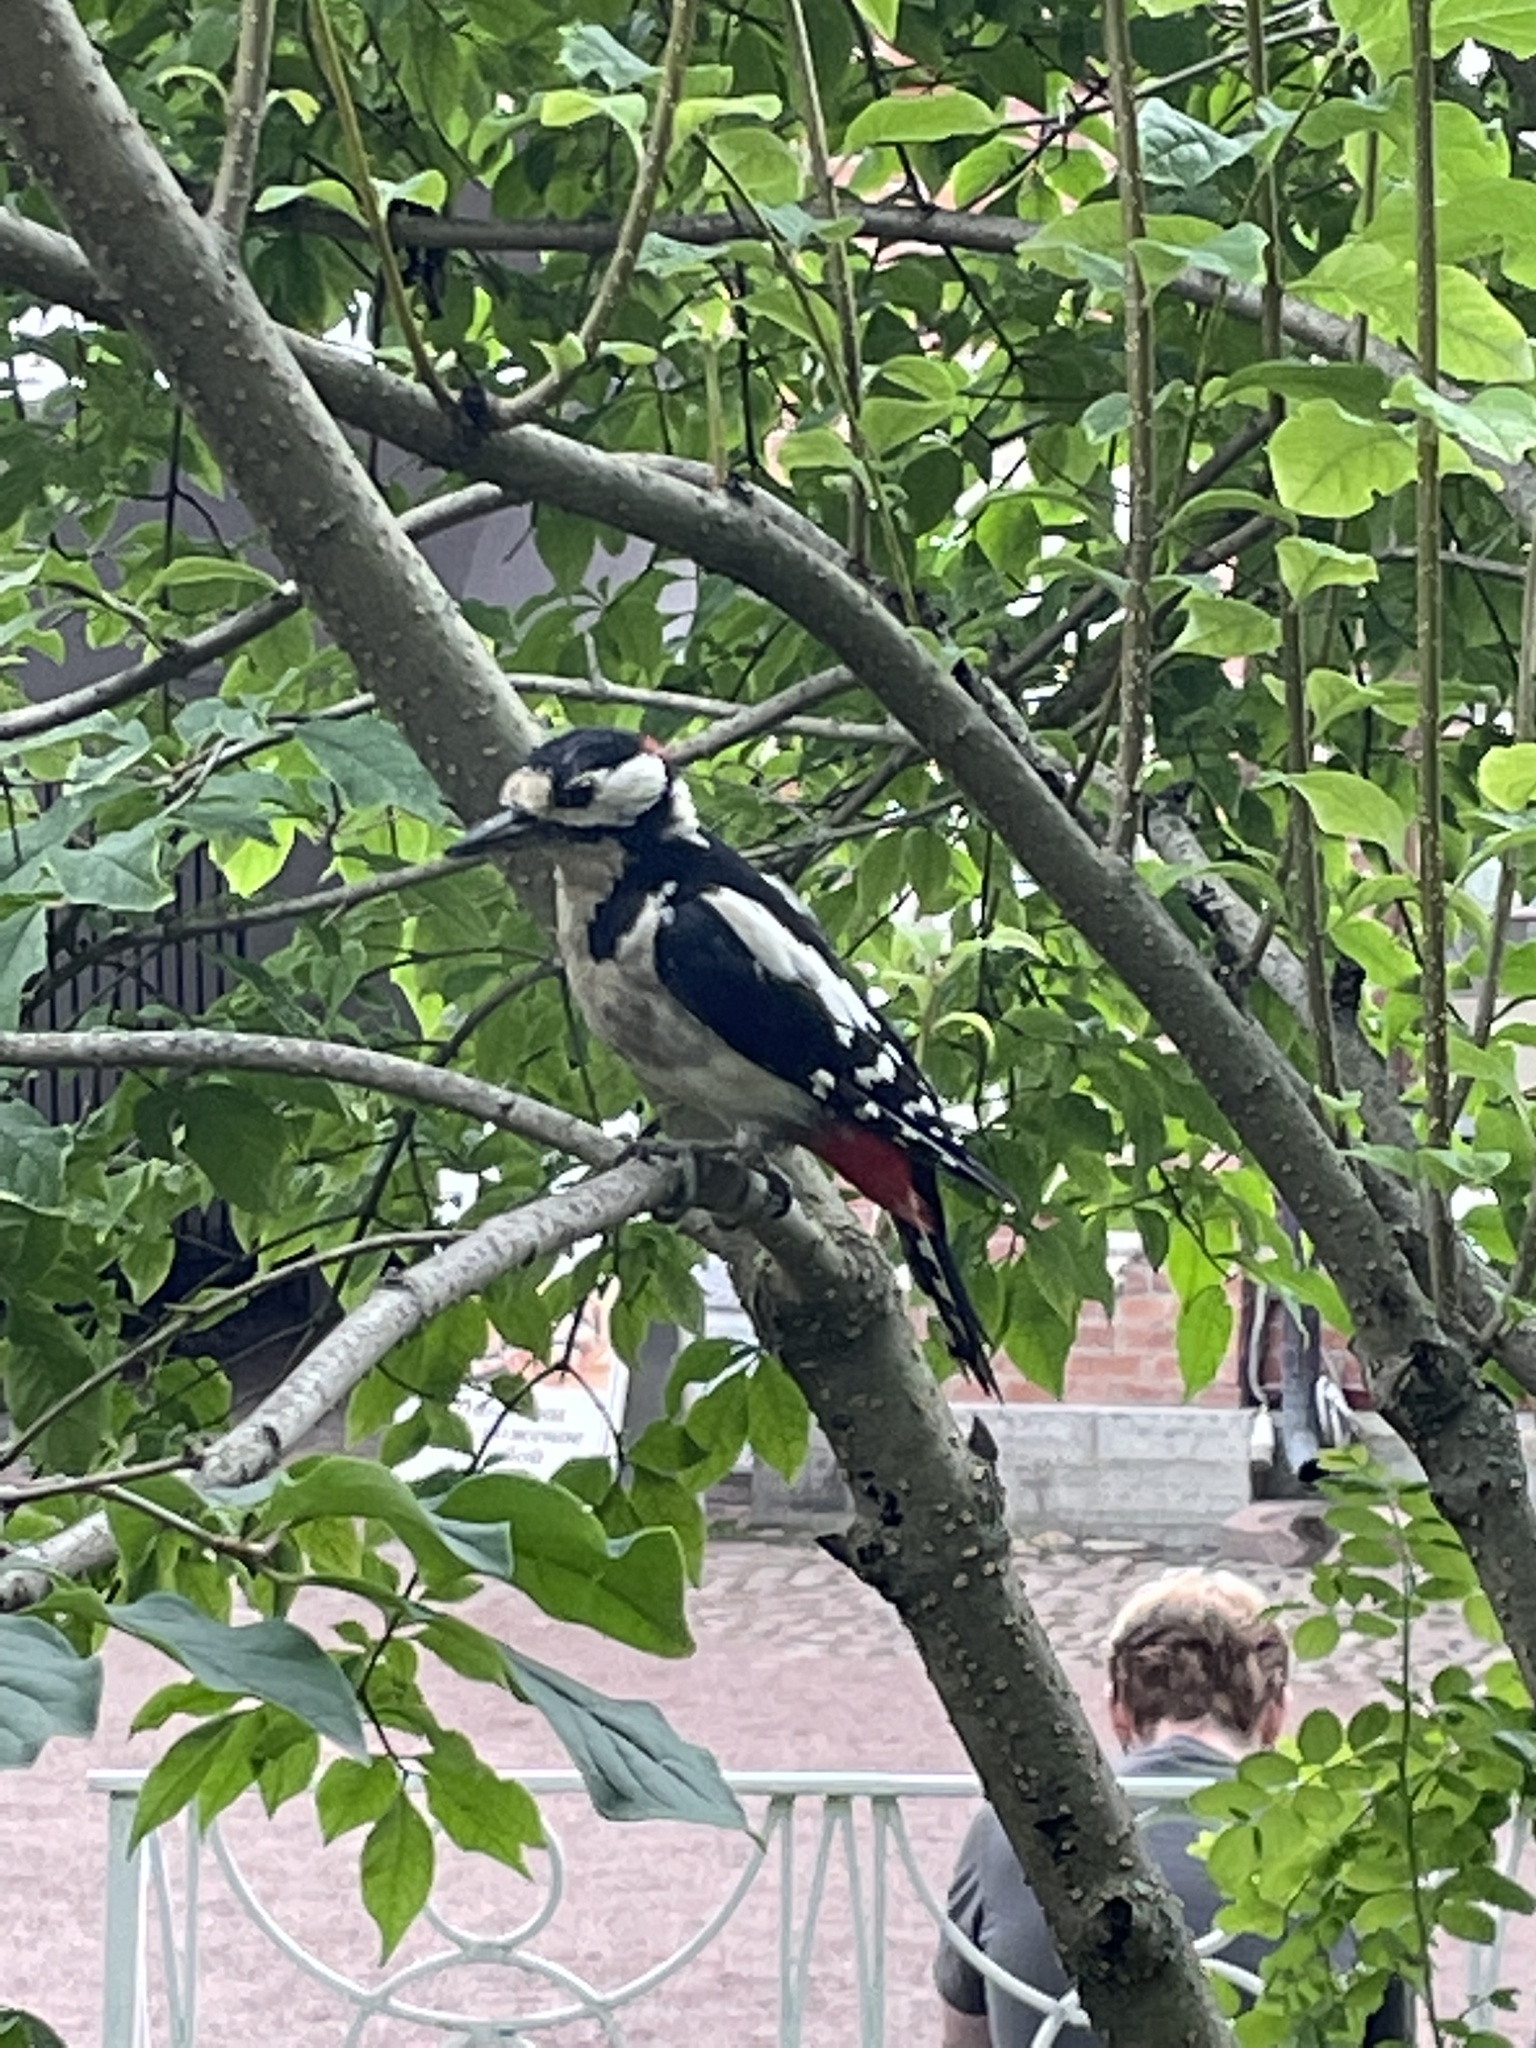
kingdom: Animalia
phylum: Chordata
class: Aves
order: Piciformes
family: Picidae
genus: Dendrocopos
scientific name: Dendrocopos major
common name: Great spotted woodpecker
